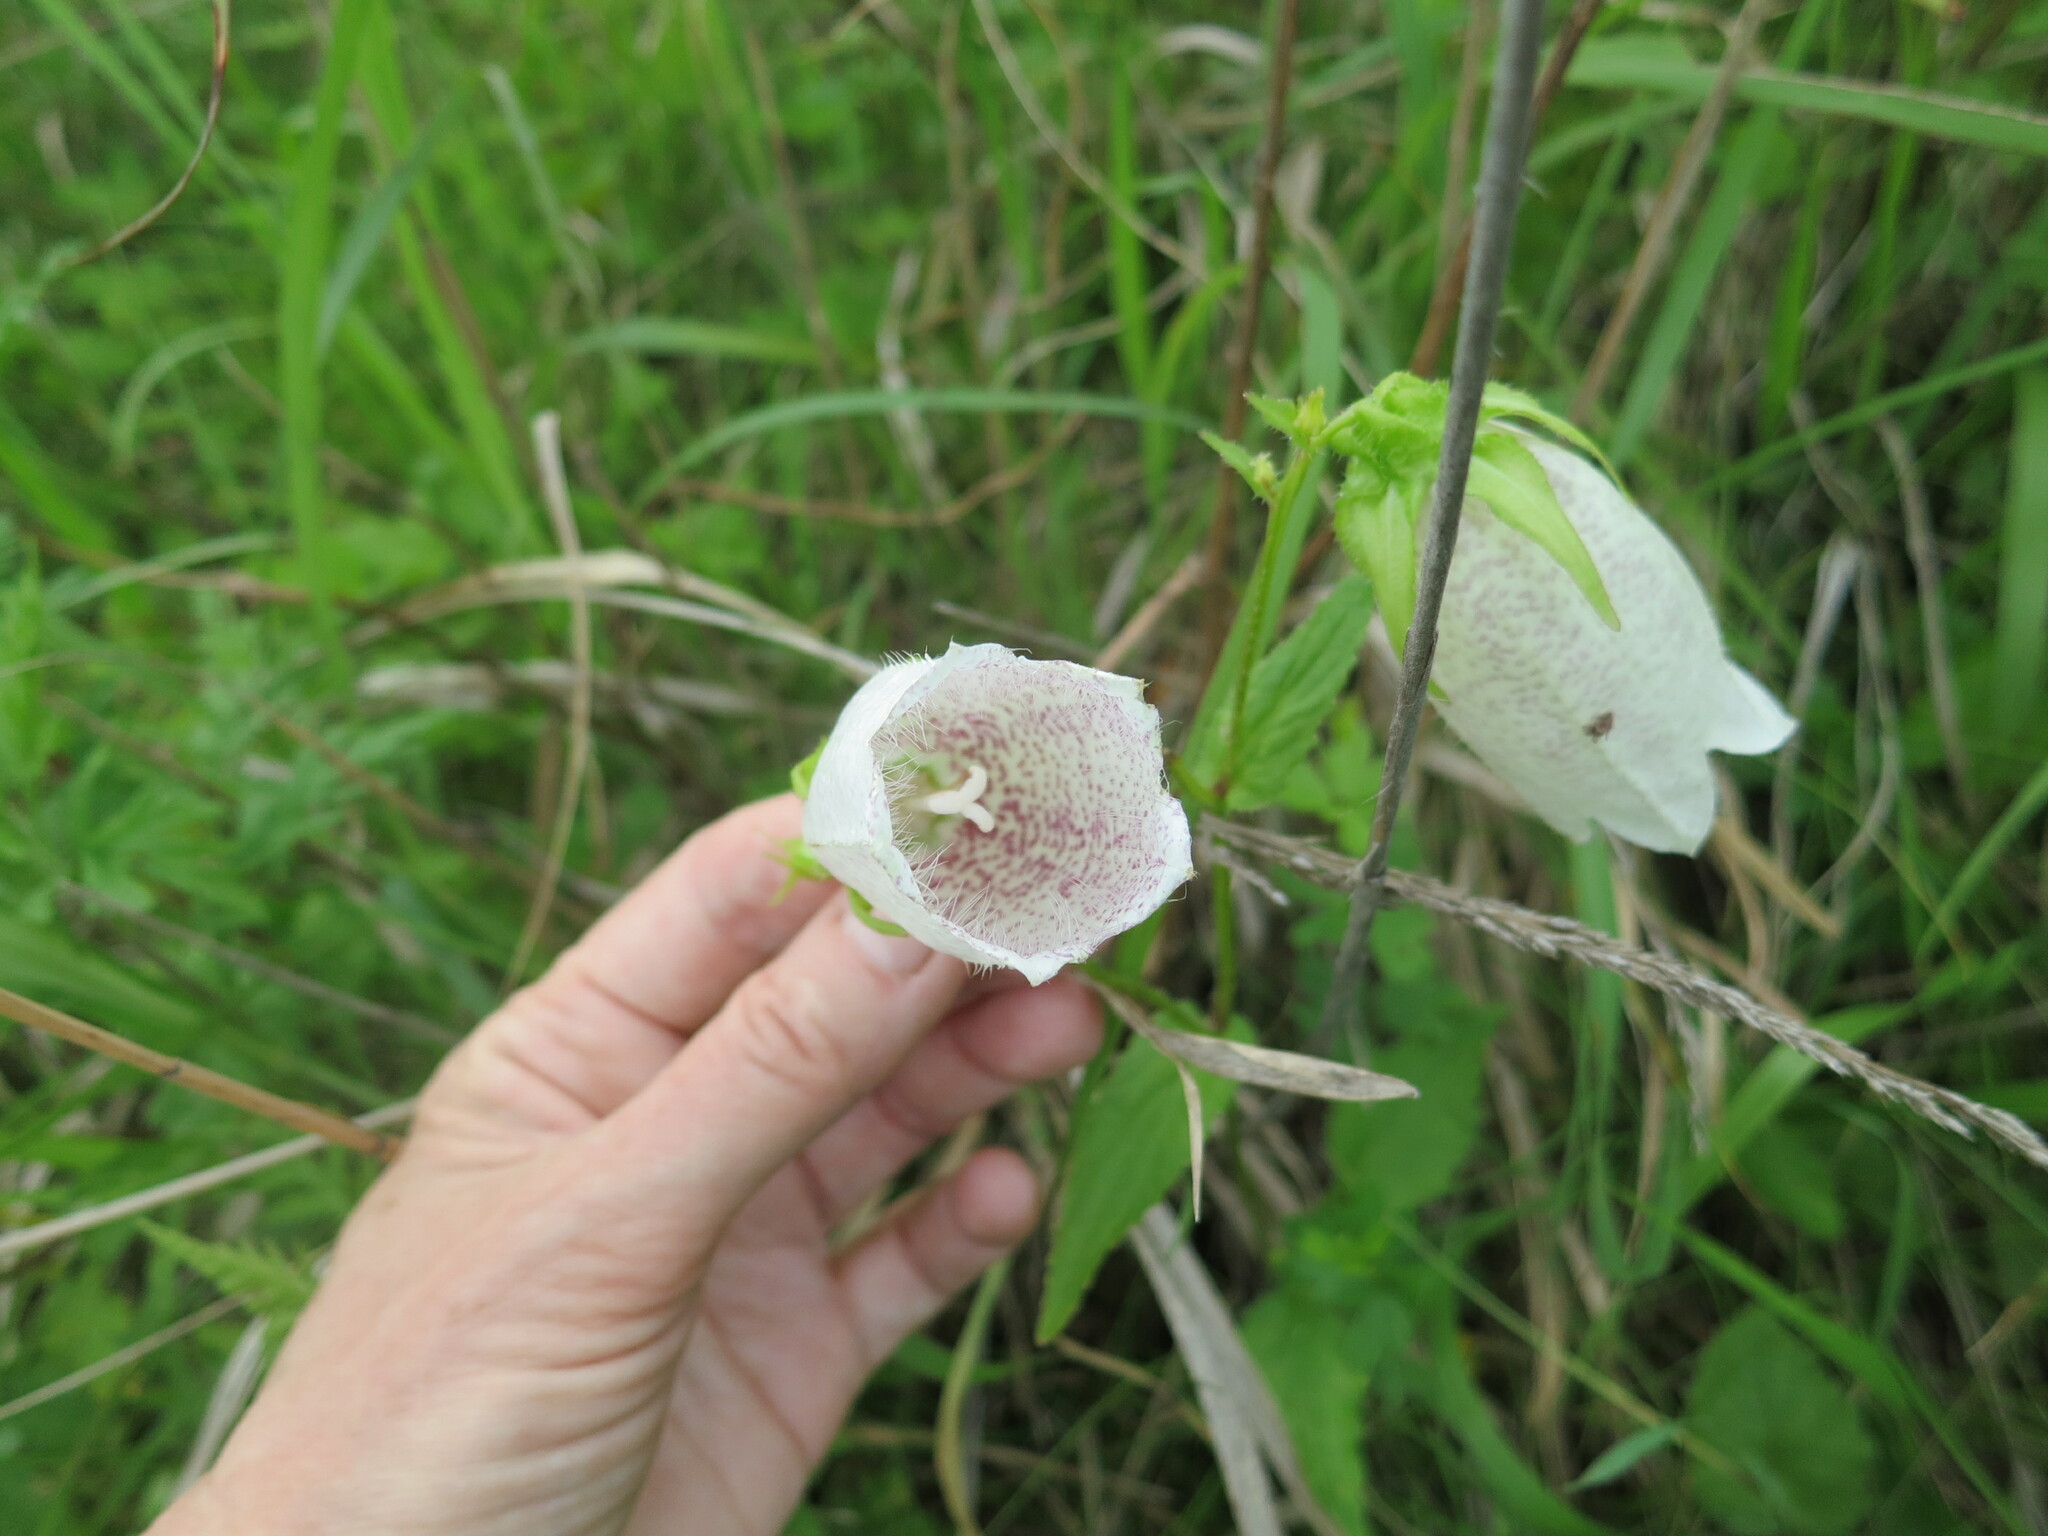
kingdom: Plantae
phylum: Tracheophyta
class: Magnoliopsida
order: Asterales
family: Campanulaceae
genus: Campanula
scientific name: Campanula punctata
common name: Spotted bellflower
